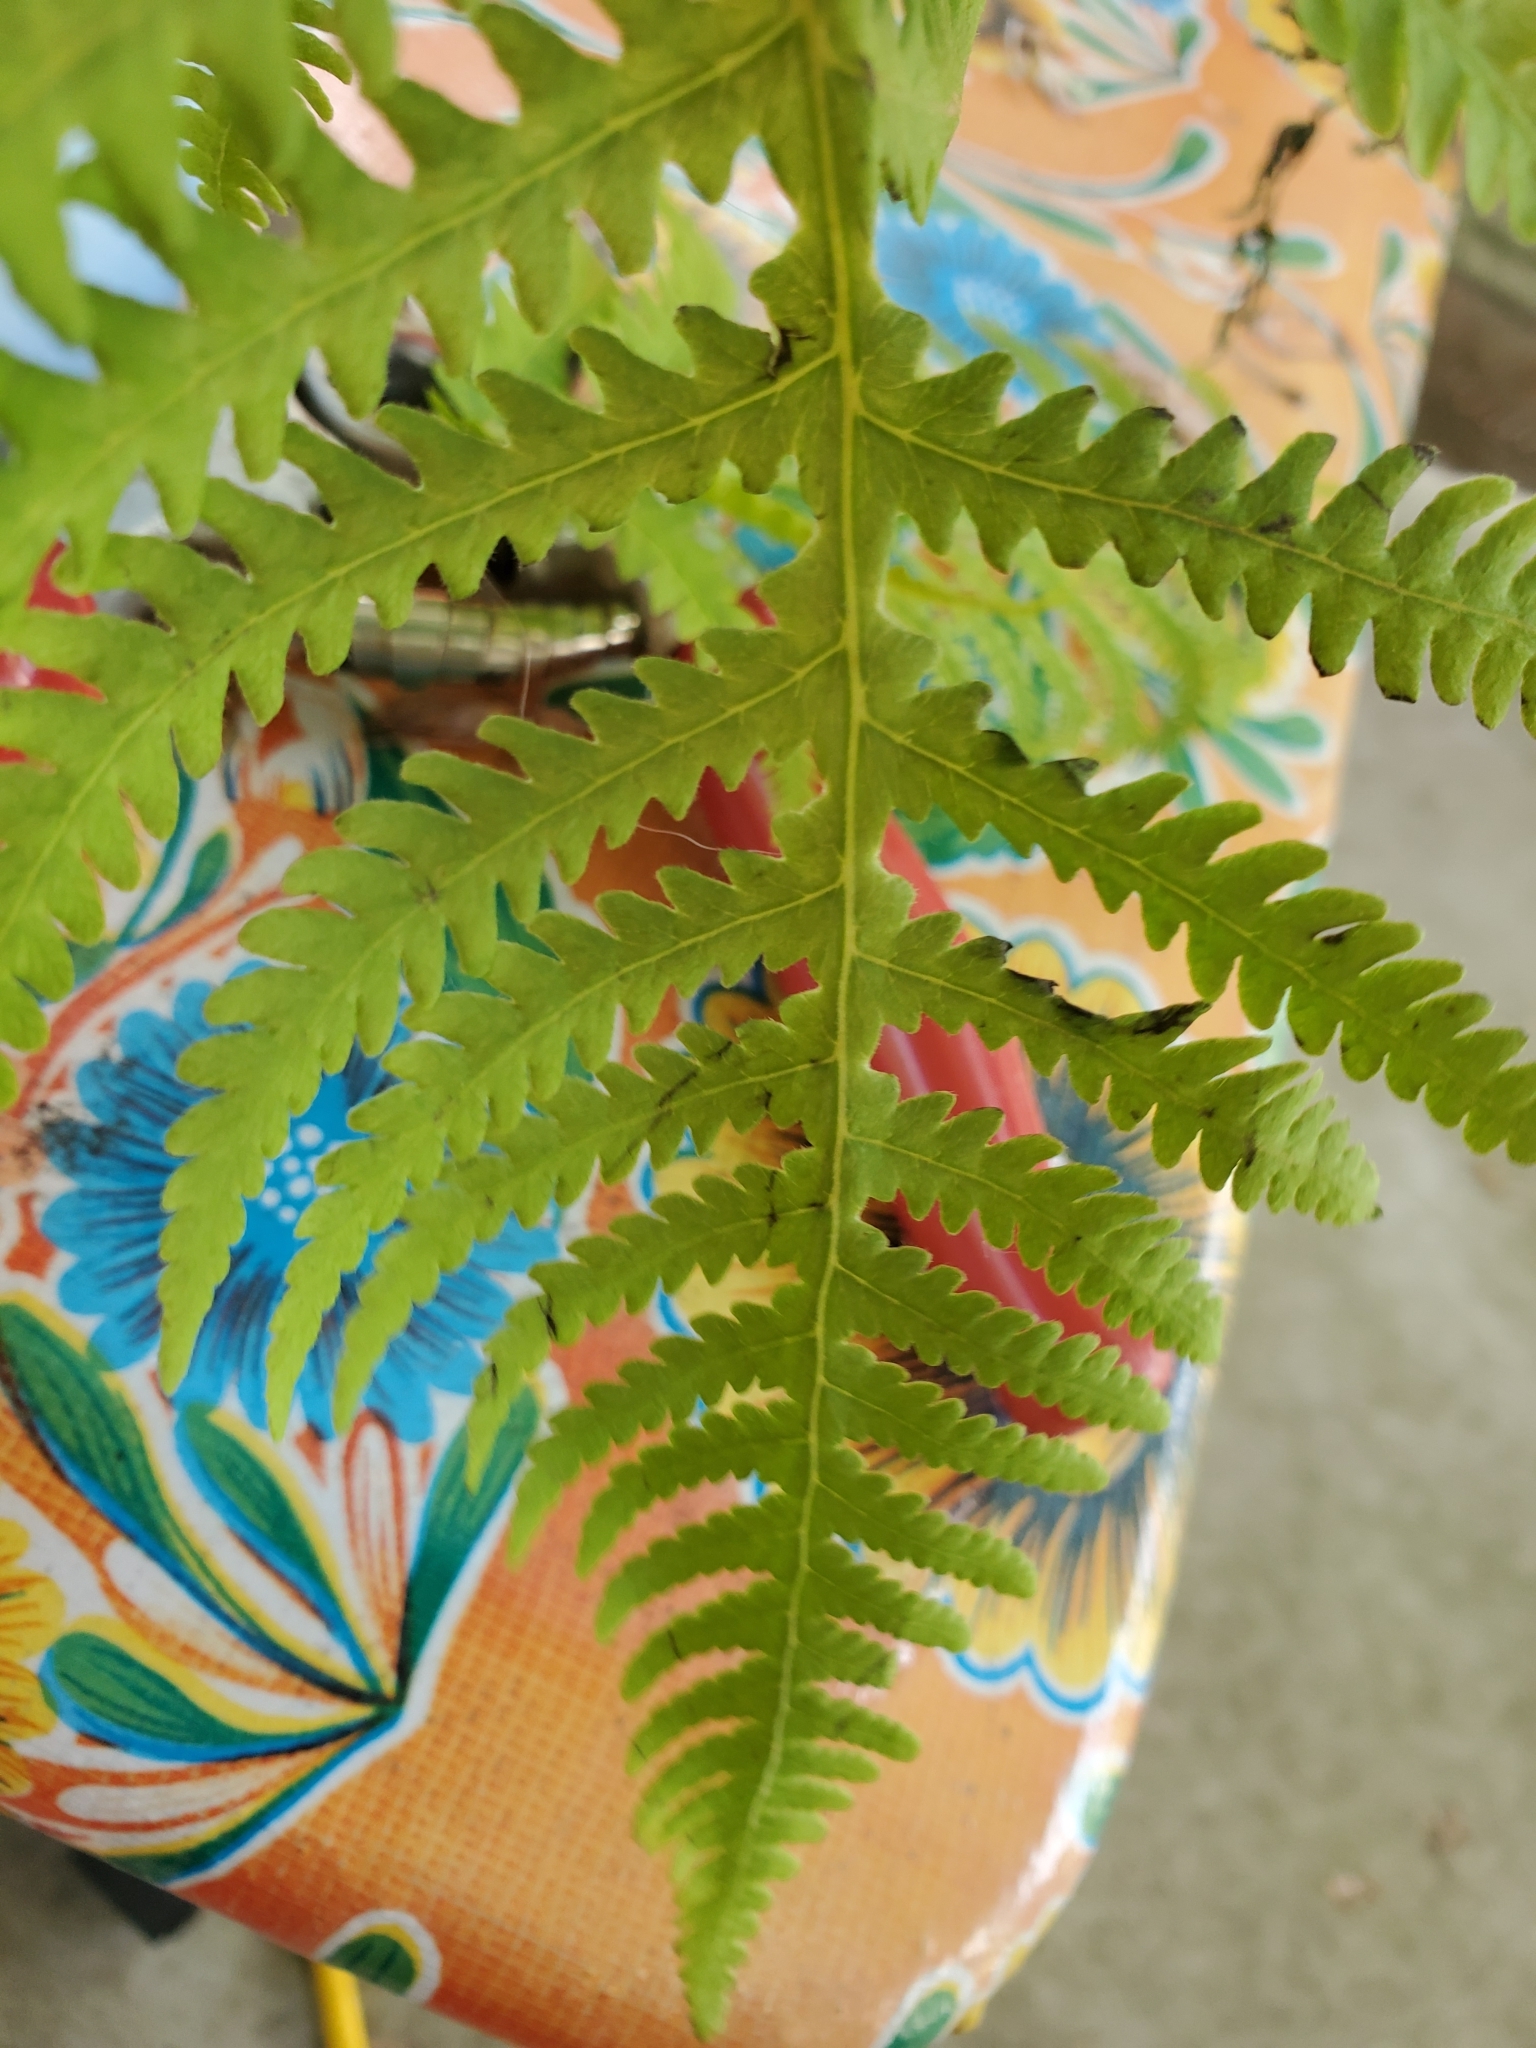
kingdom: Plantae
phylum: Tracheophyta
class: Polypodiopsida
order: Polypodiales
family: Thelypteridaceae
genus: Phegopteris
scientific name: Phegopteris hexagonoptera
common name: Broad beech fern
